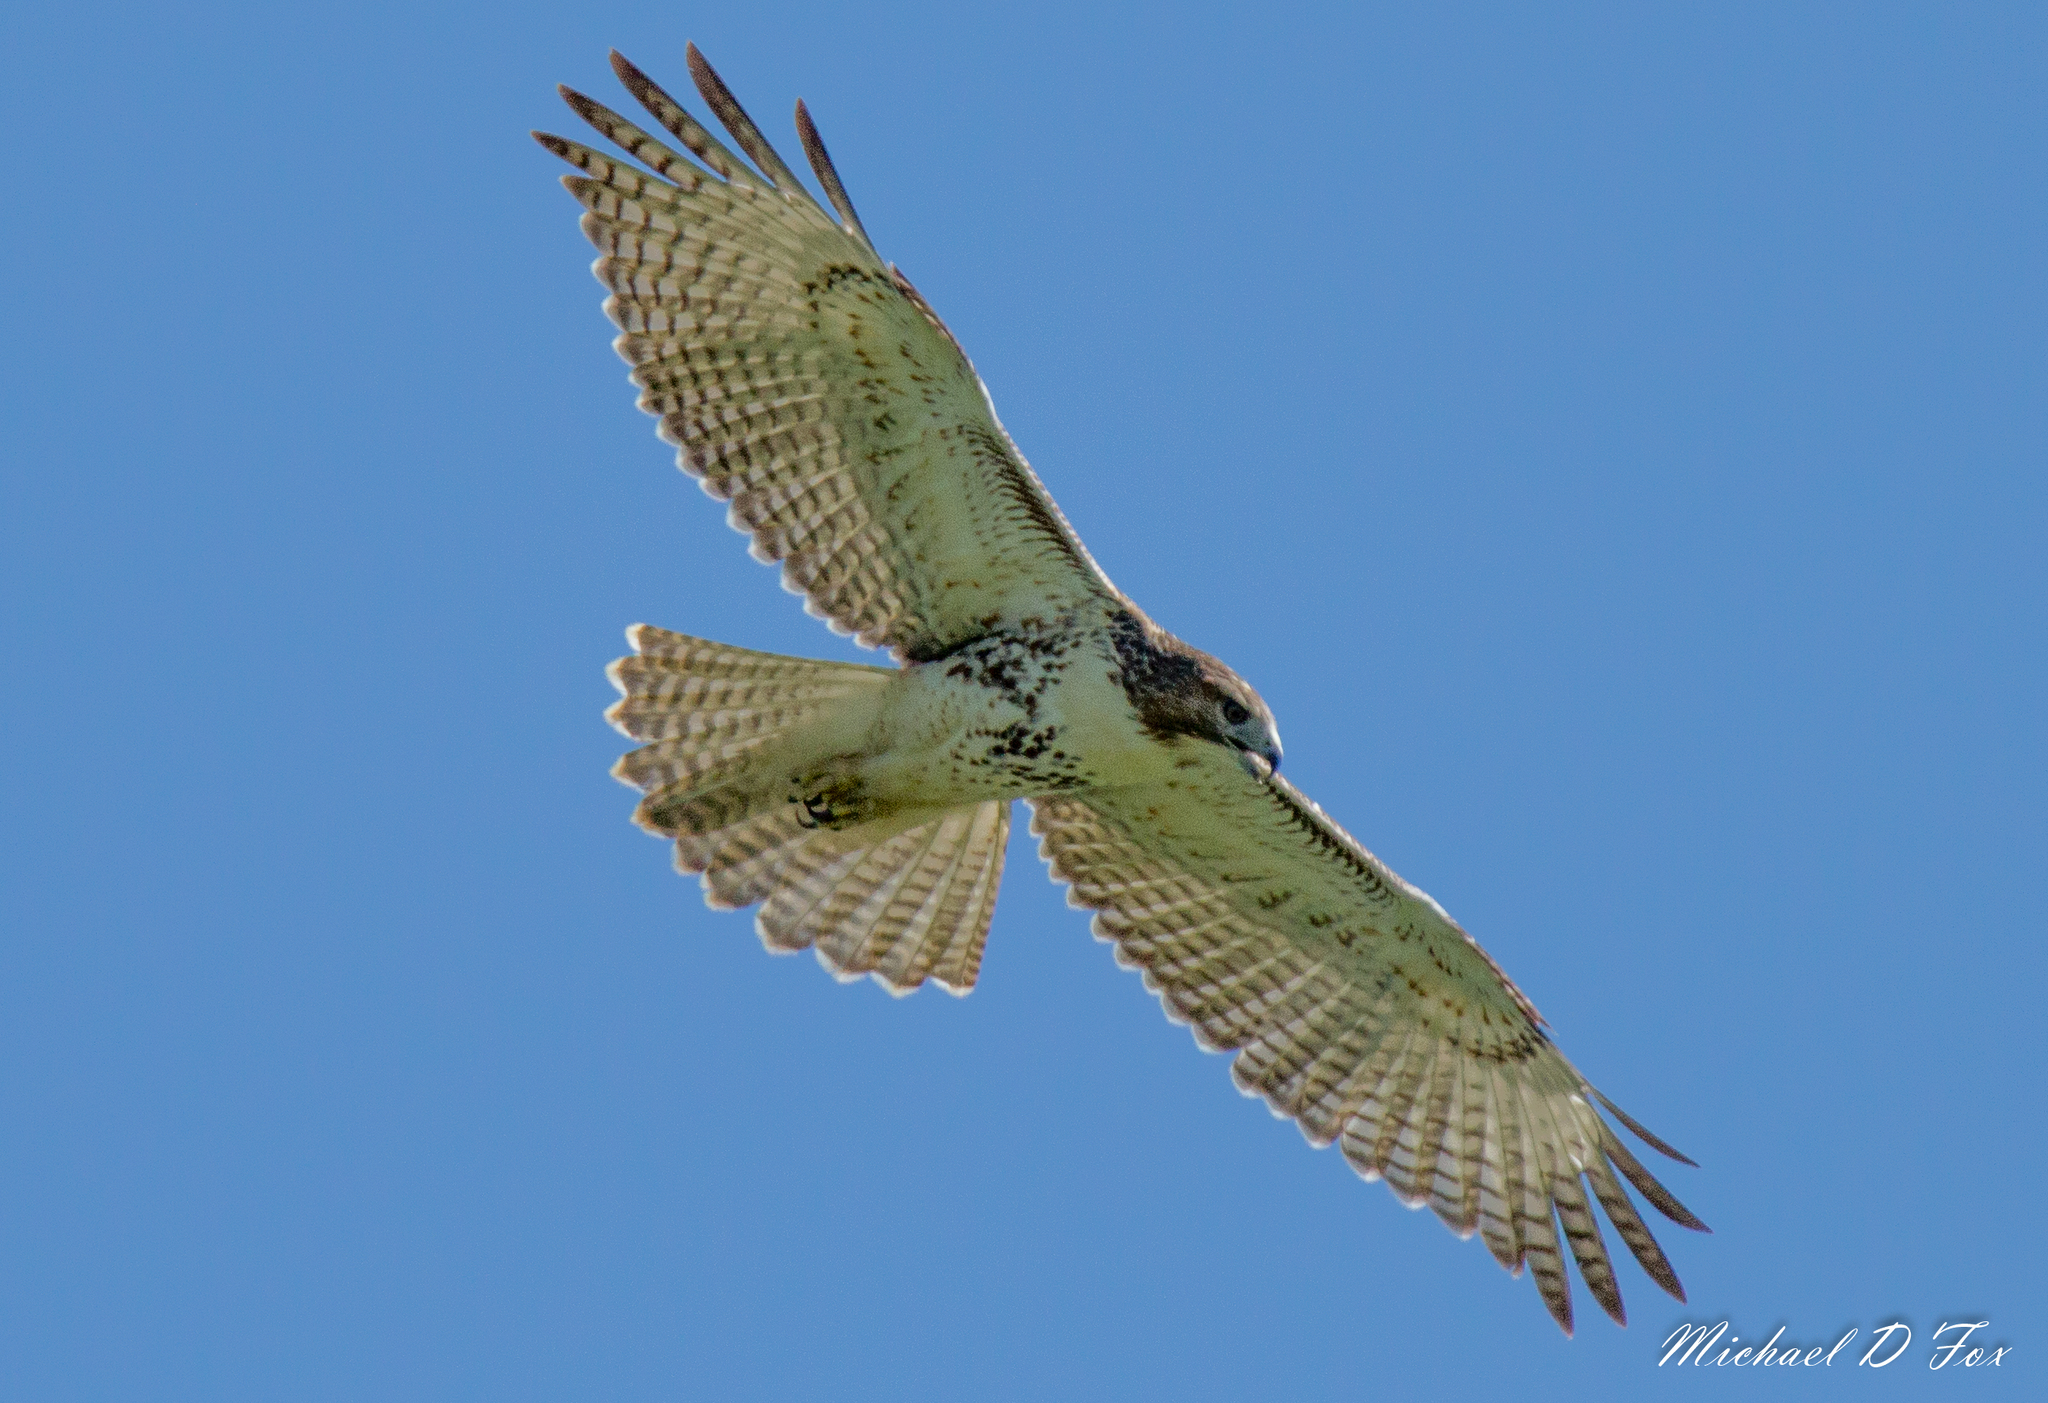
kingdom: Animalia
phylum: Chordata
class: Aves
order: Accipitriformes
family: Accipitridae
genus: Buteo
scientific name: Buteo jamaicensis
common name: Red-tailed hawk
